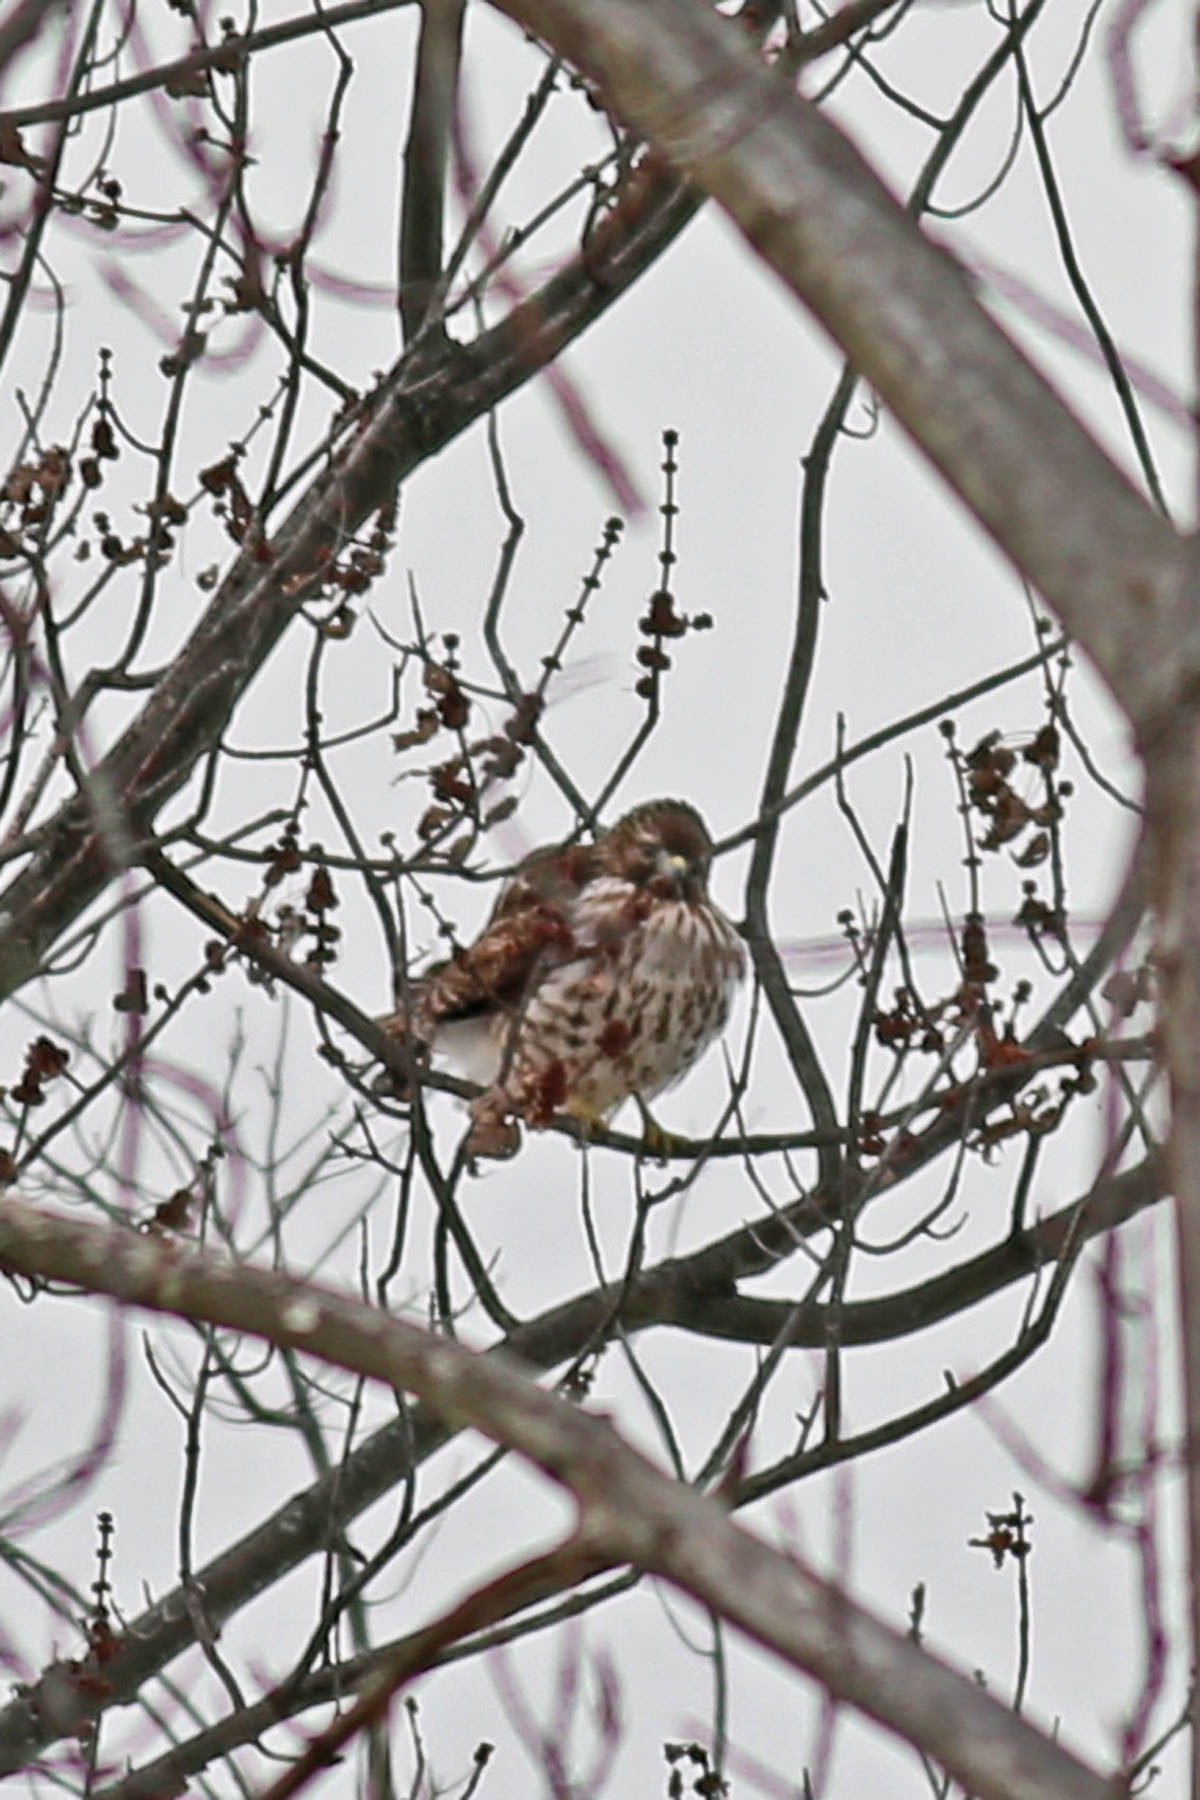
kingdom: Animalia
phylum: Chordata
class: Aves
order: Accipitriformes
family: Accipitridae
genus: Buteo
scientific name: Buteo lineatus
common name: Red-shouldered hawk
